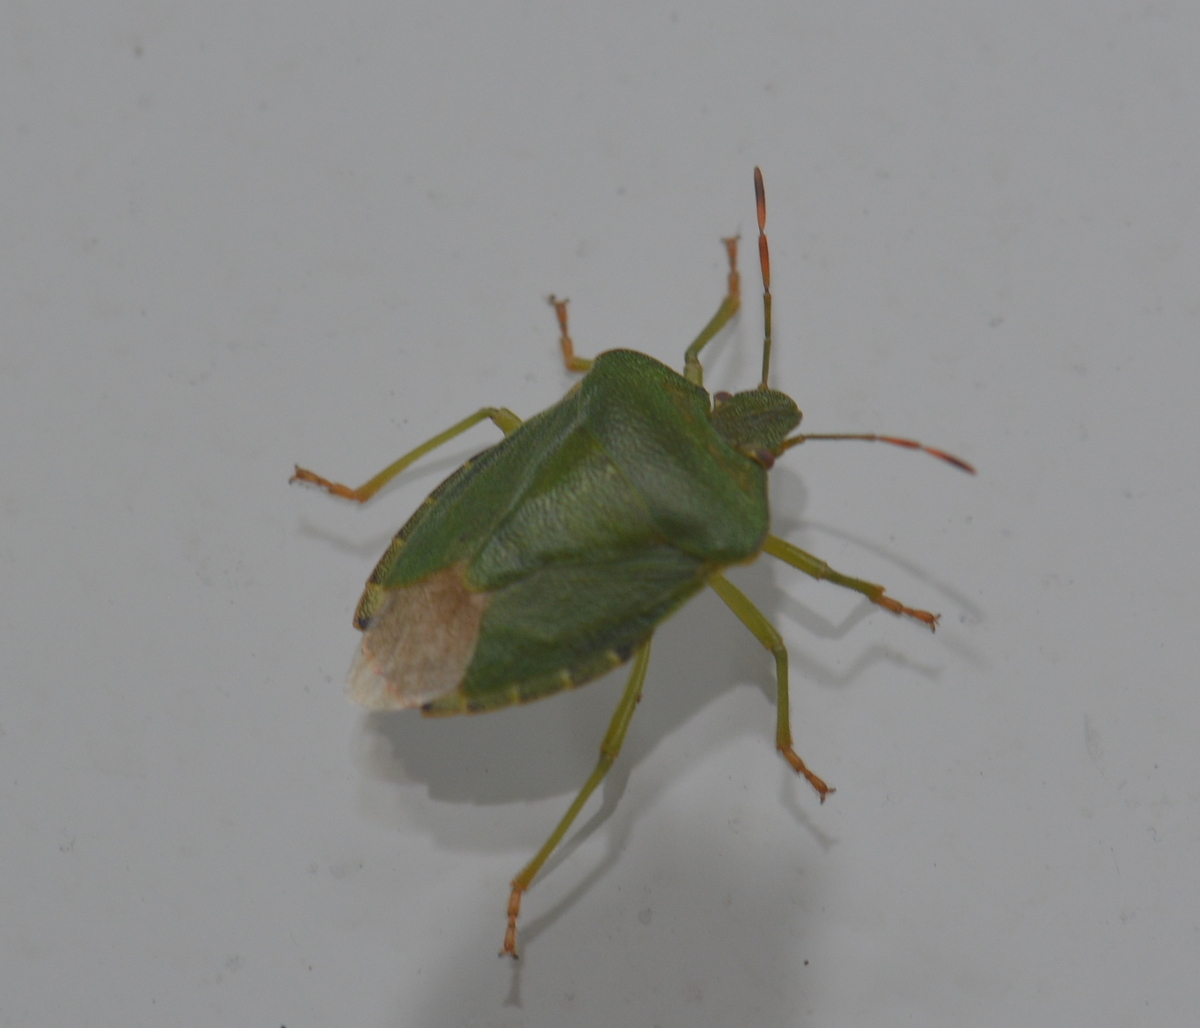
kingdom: Animalia
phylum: Arthropoda
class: Insecta
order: Hemiptera
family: Pentatomidae
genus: Palomena
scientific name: Palomena prasina
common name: Green shieldbug
